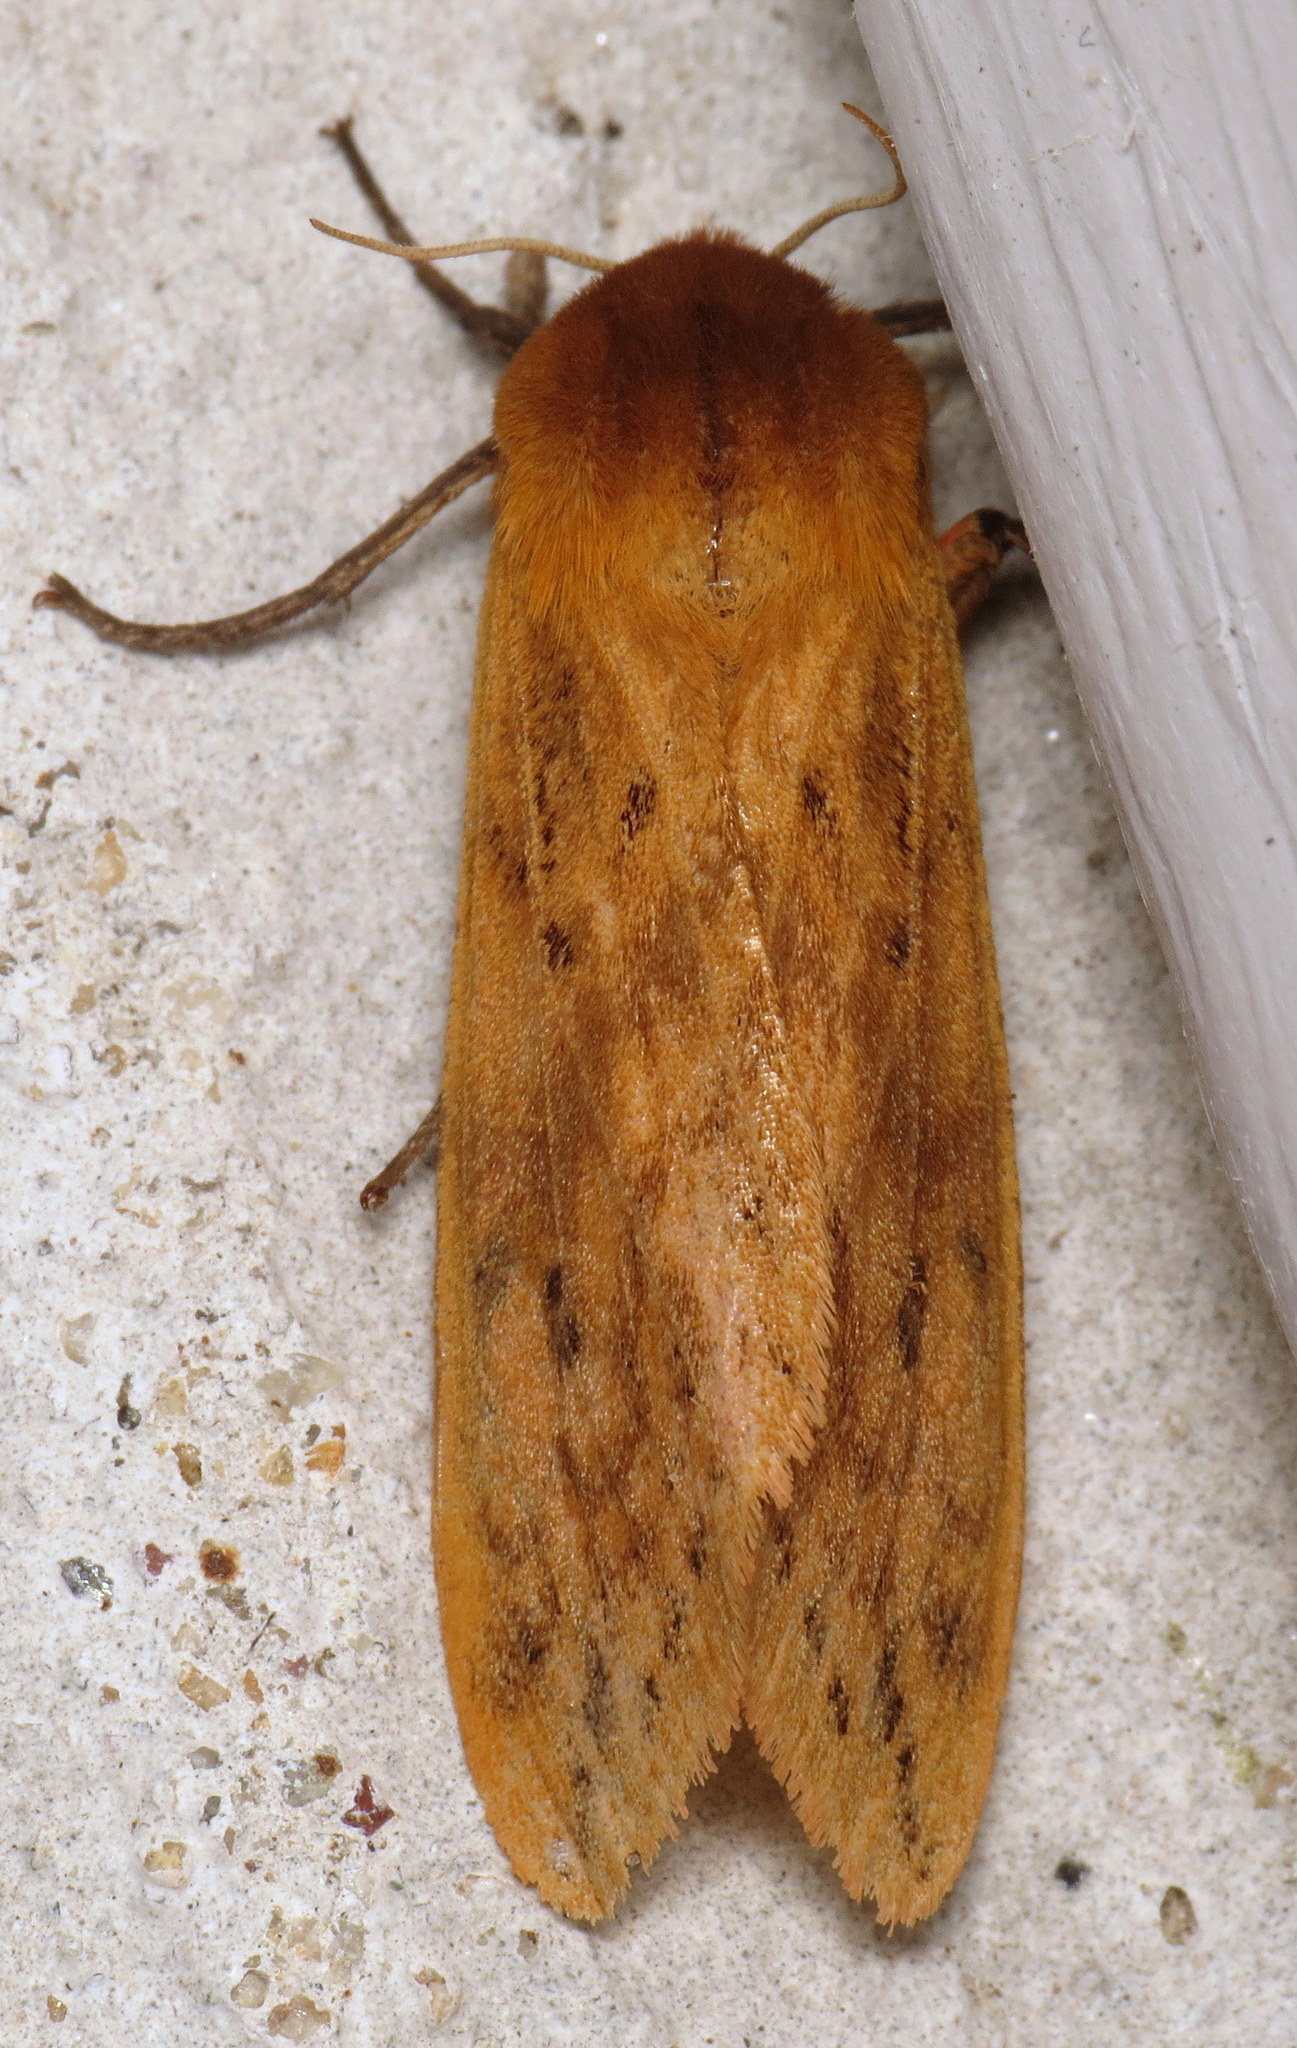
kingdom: Animalia
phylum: Arthropoda
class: Insecta
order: Lepidoptera
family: Erebidae
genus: Pyrrharctia
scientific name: Pyrrharctia isabella
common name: Isabella tiger moth
